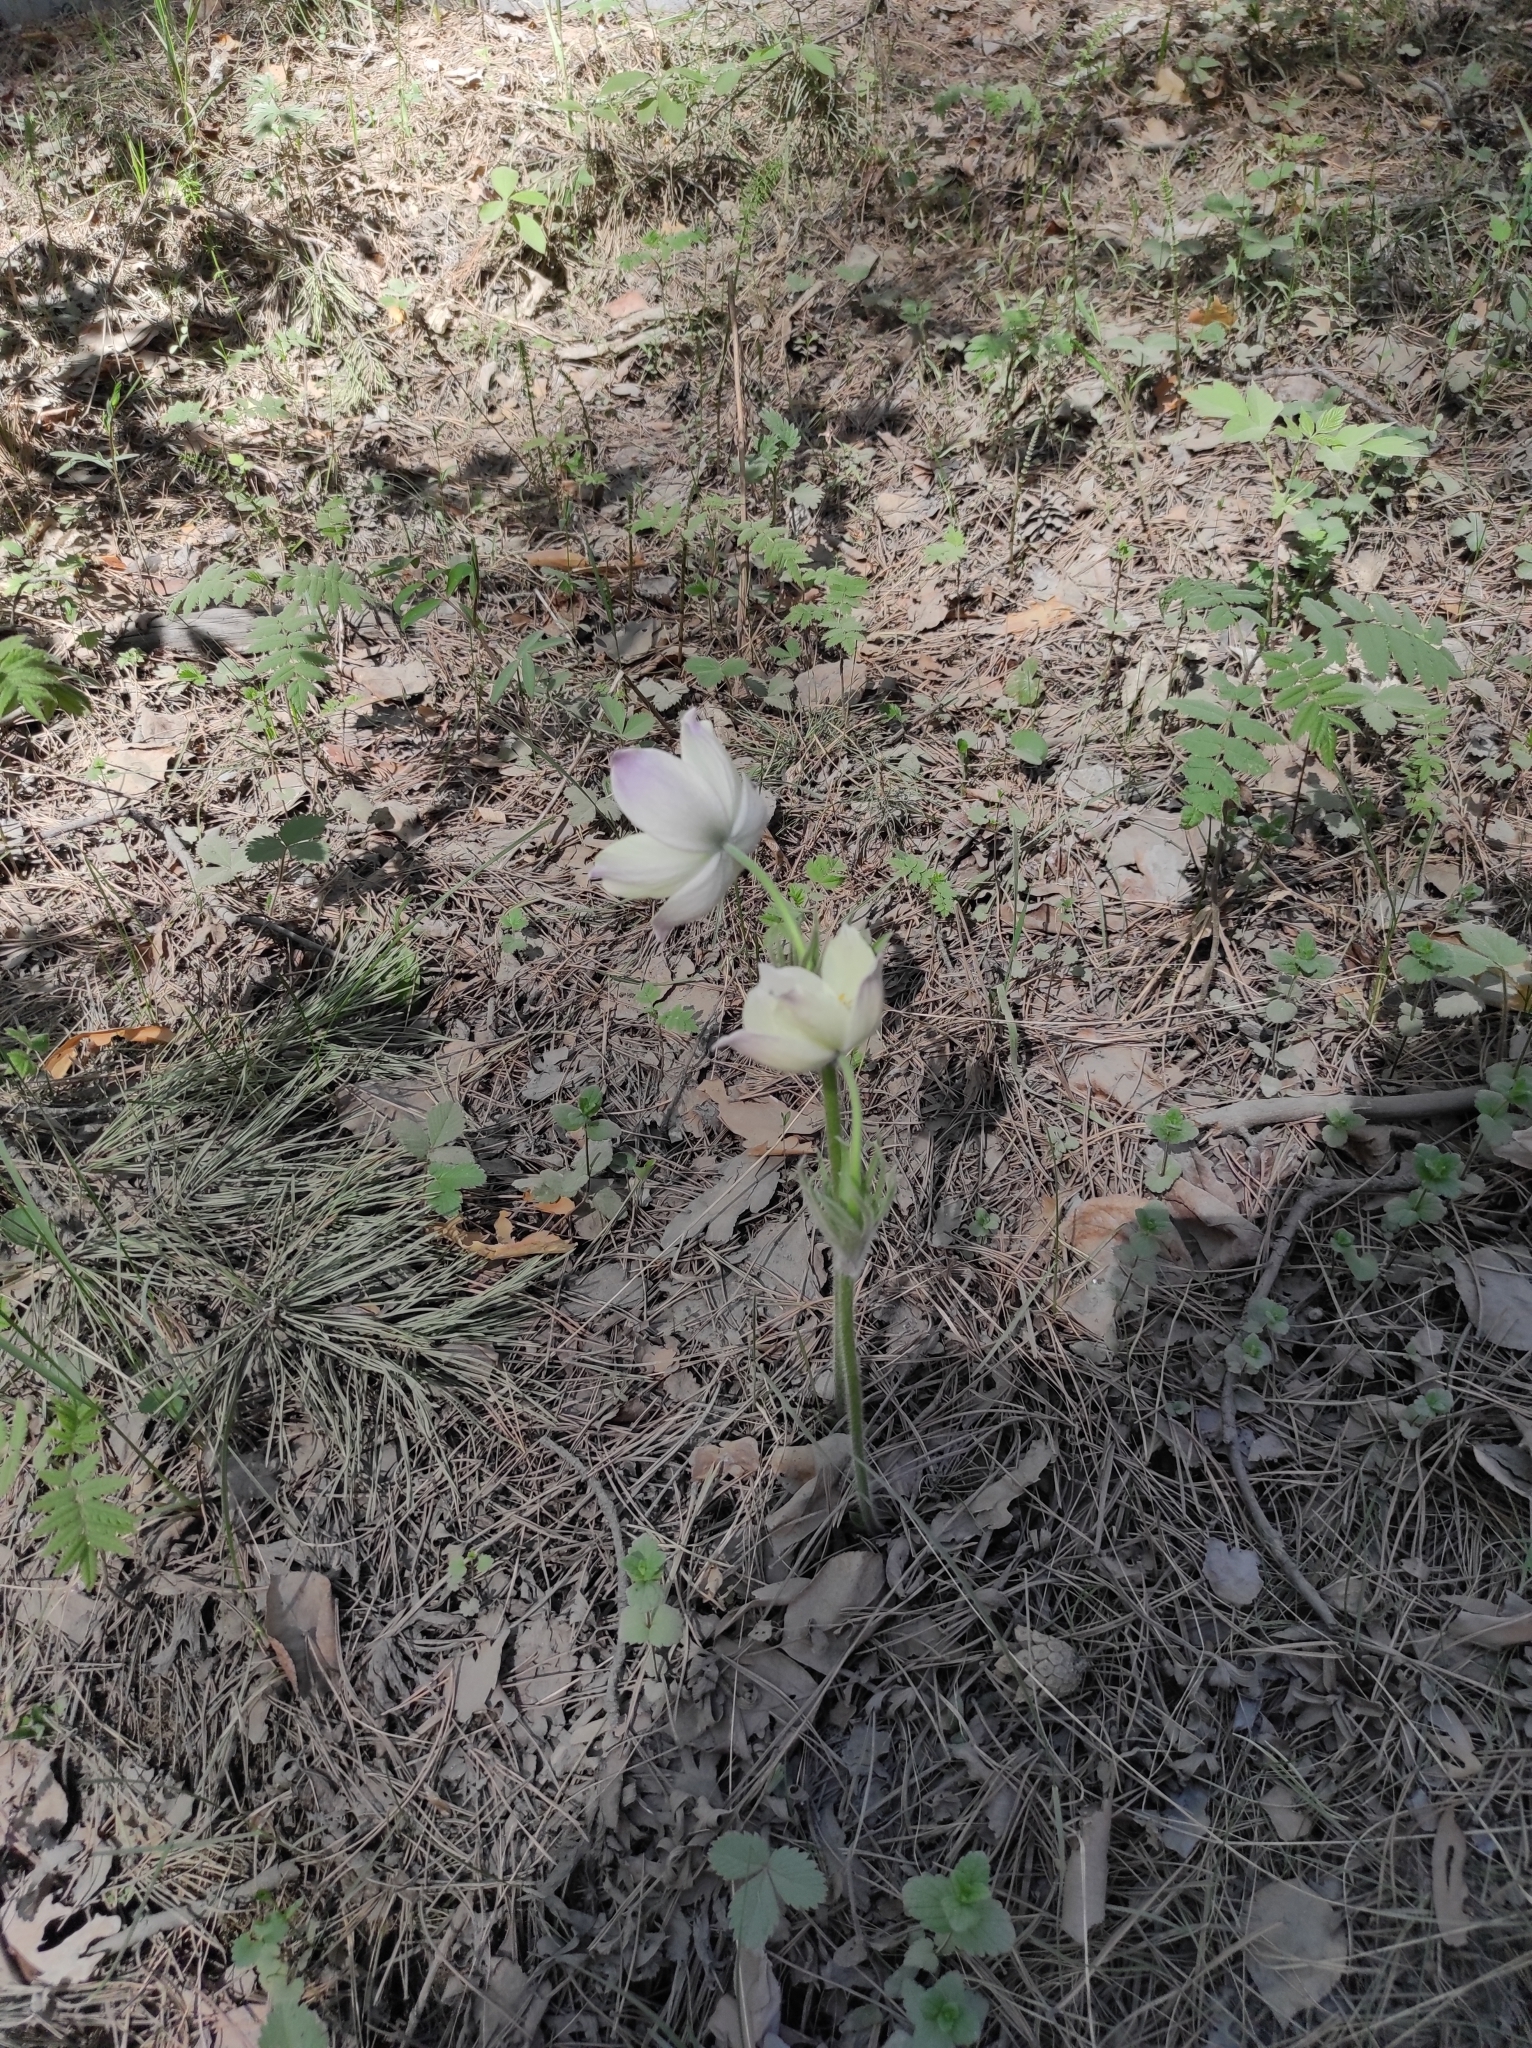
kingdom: Plantae
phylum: Tracheophyta
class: Magnoliopsida
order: Ranunculales
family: Ranunculaceae
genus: Pulsatilla
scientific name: Pulsatilla patens
